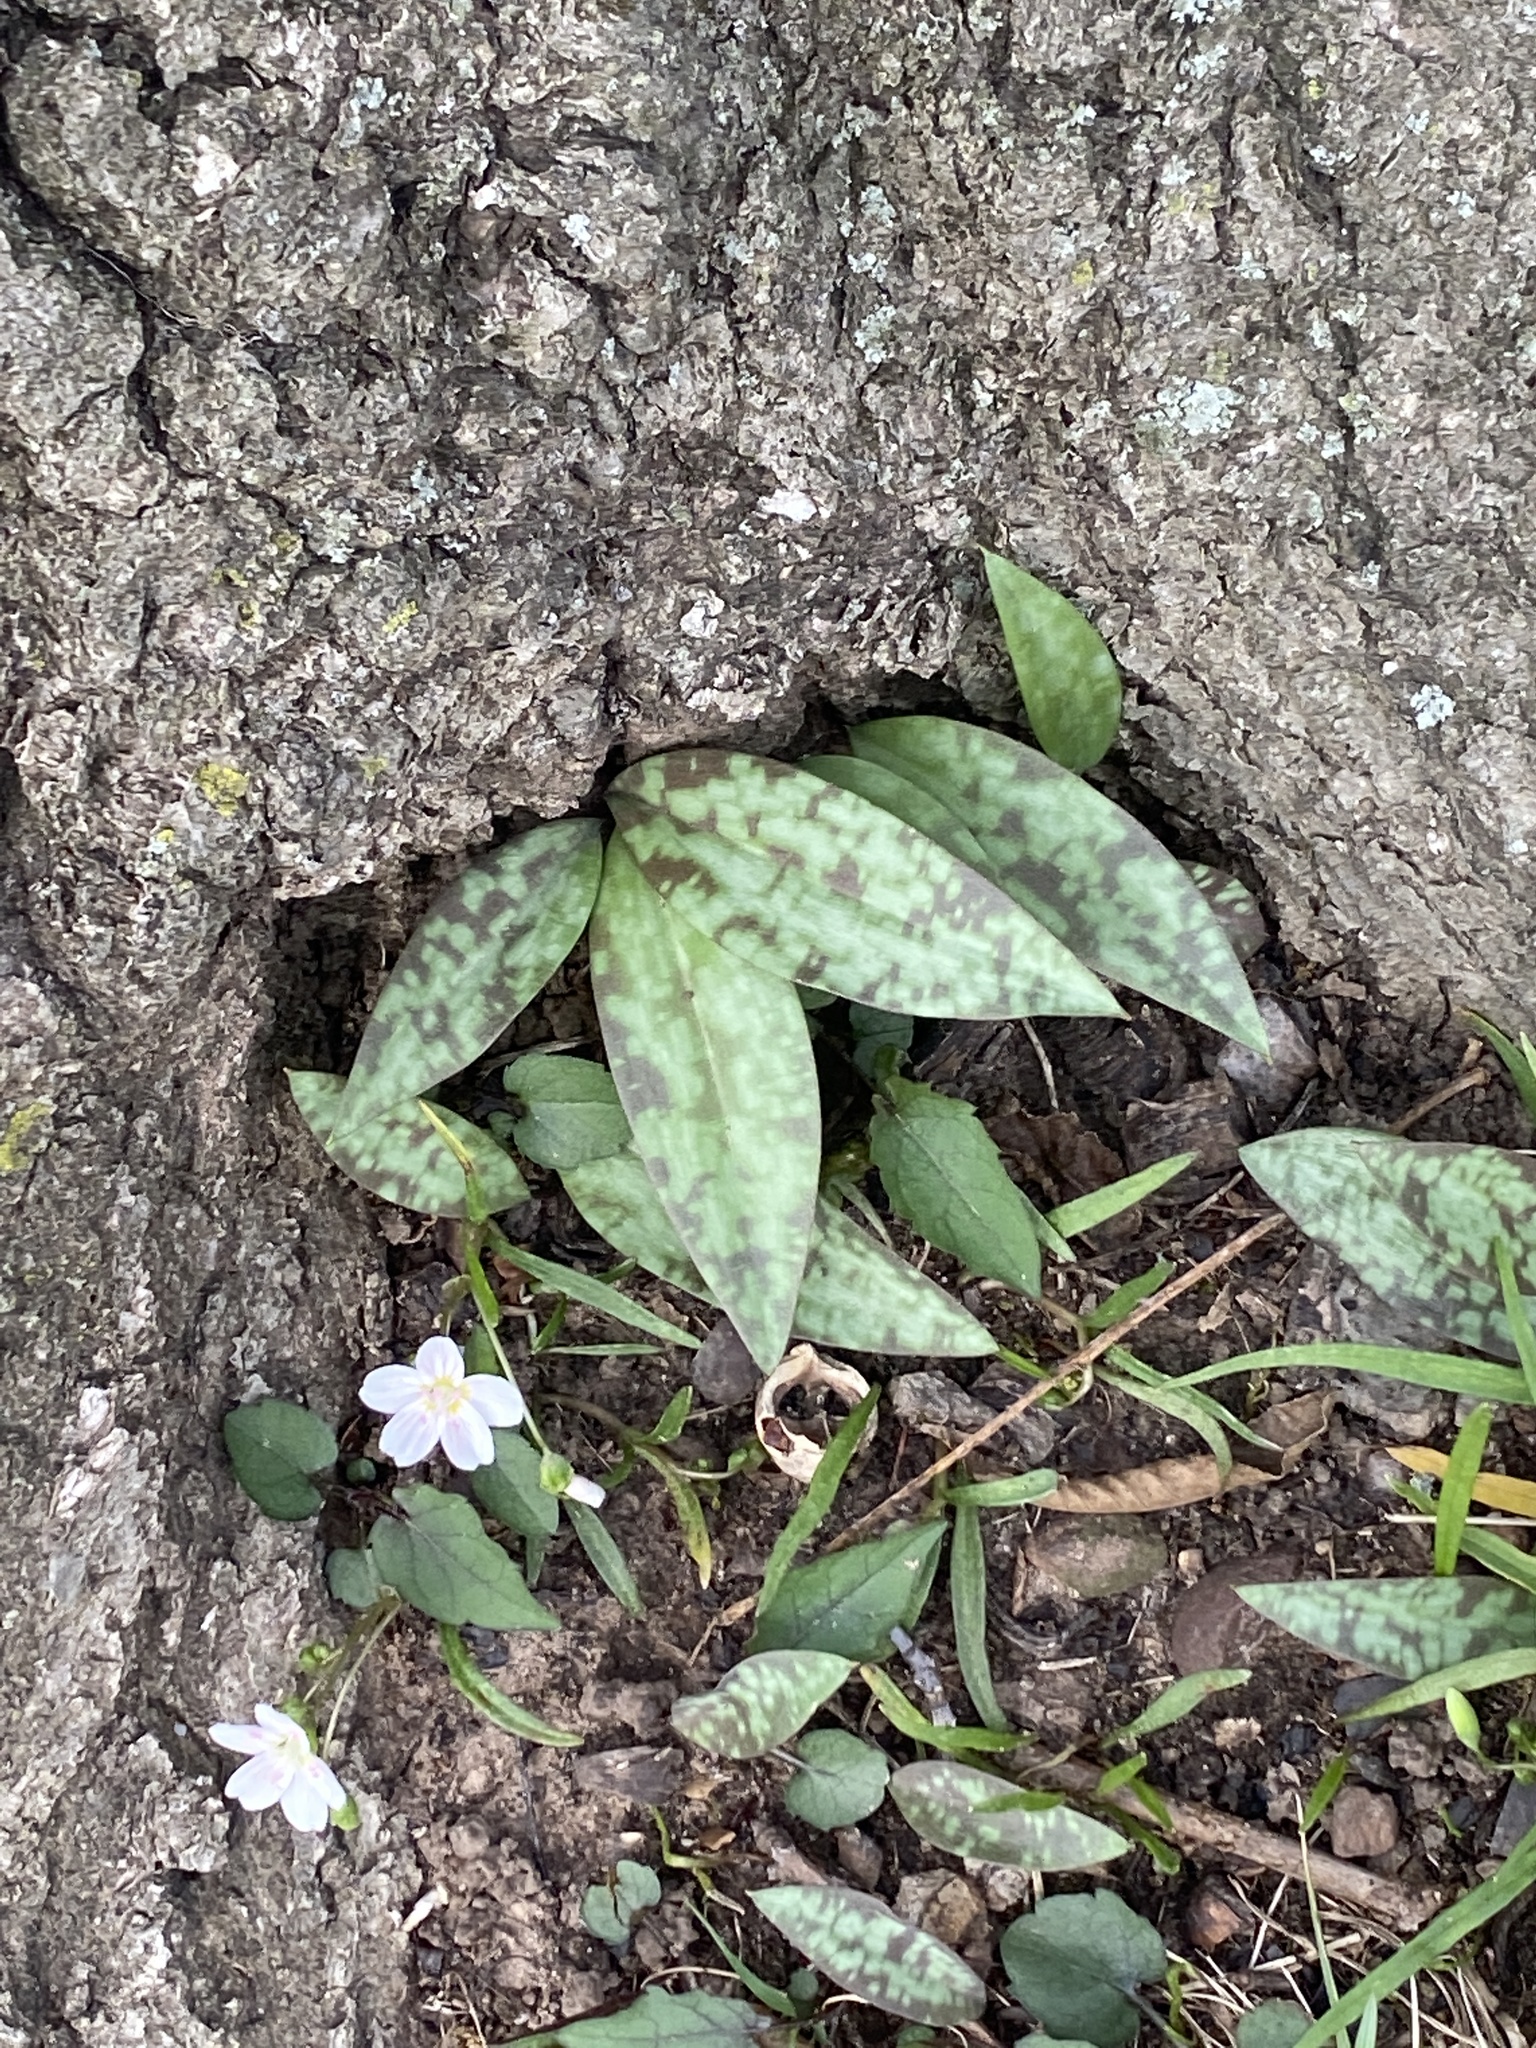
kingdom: Plantae
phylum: Tracheophyta
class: Liliopsida
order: Liliales
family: Liliaceae
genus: Erythronium
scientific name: Erythronium americanum
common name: Yellow adder's-tongue
